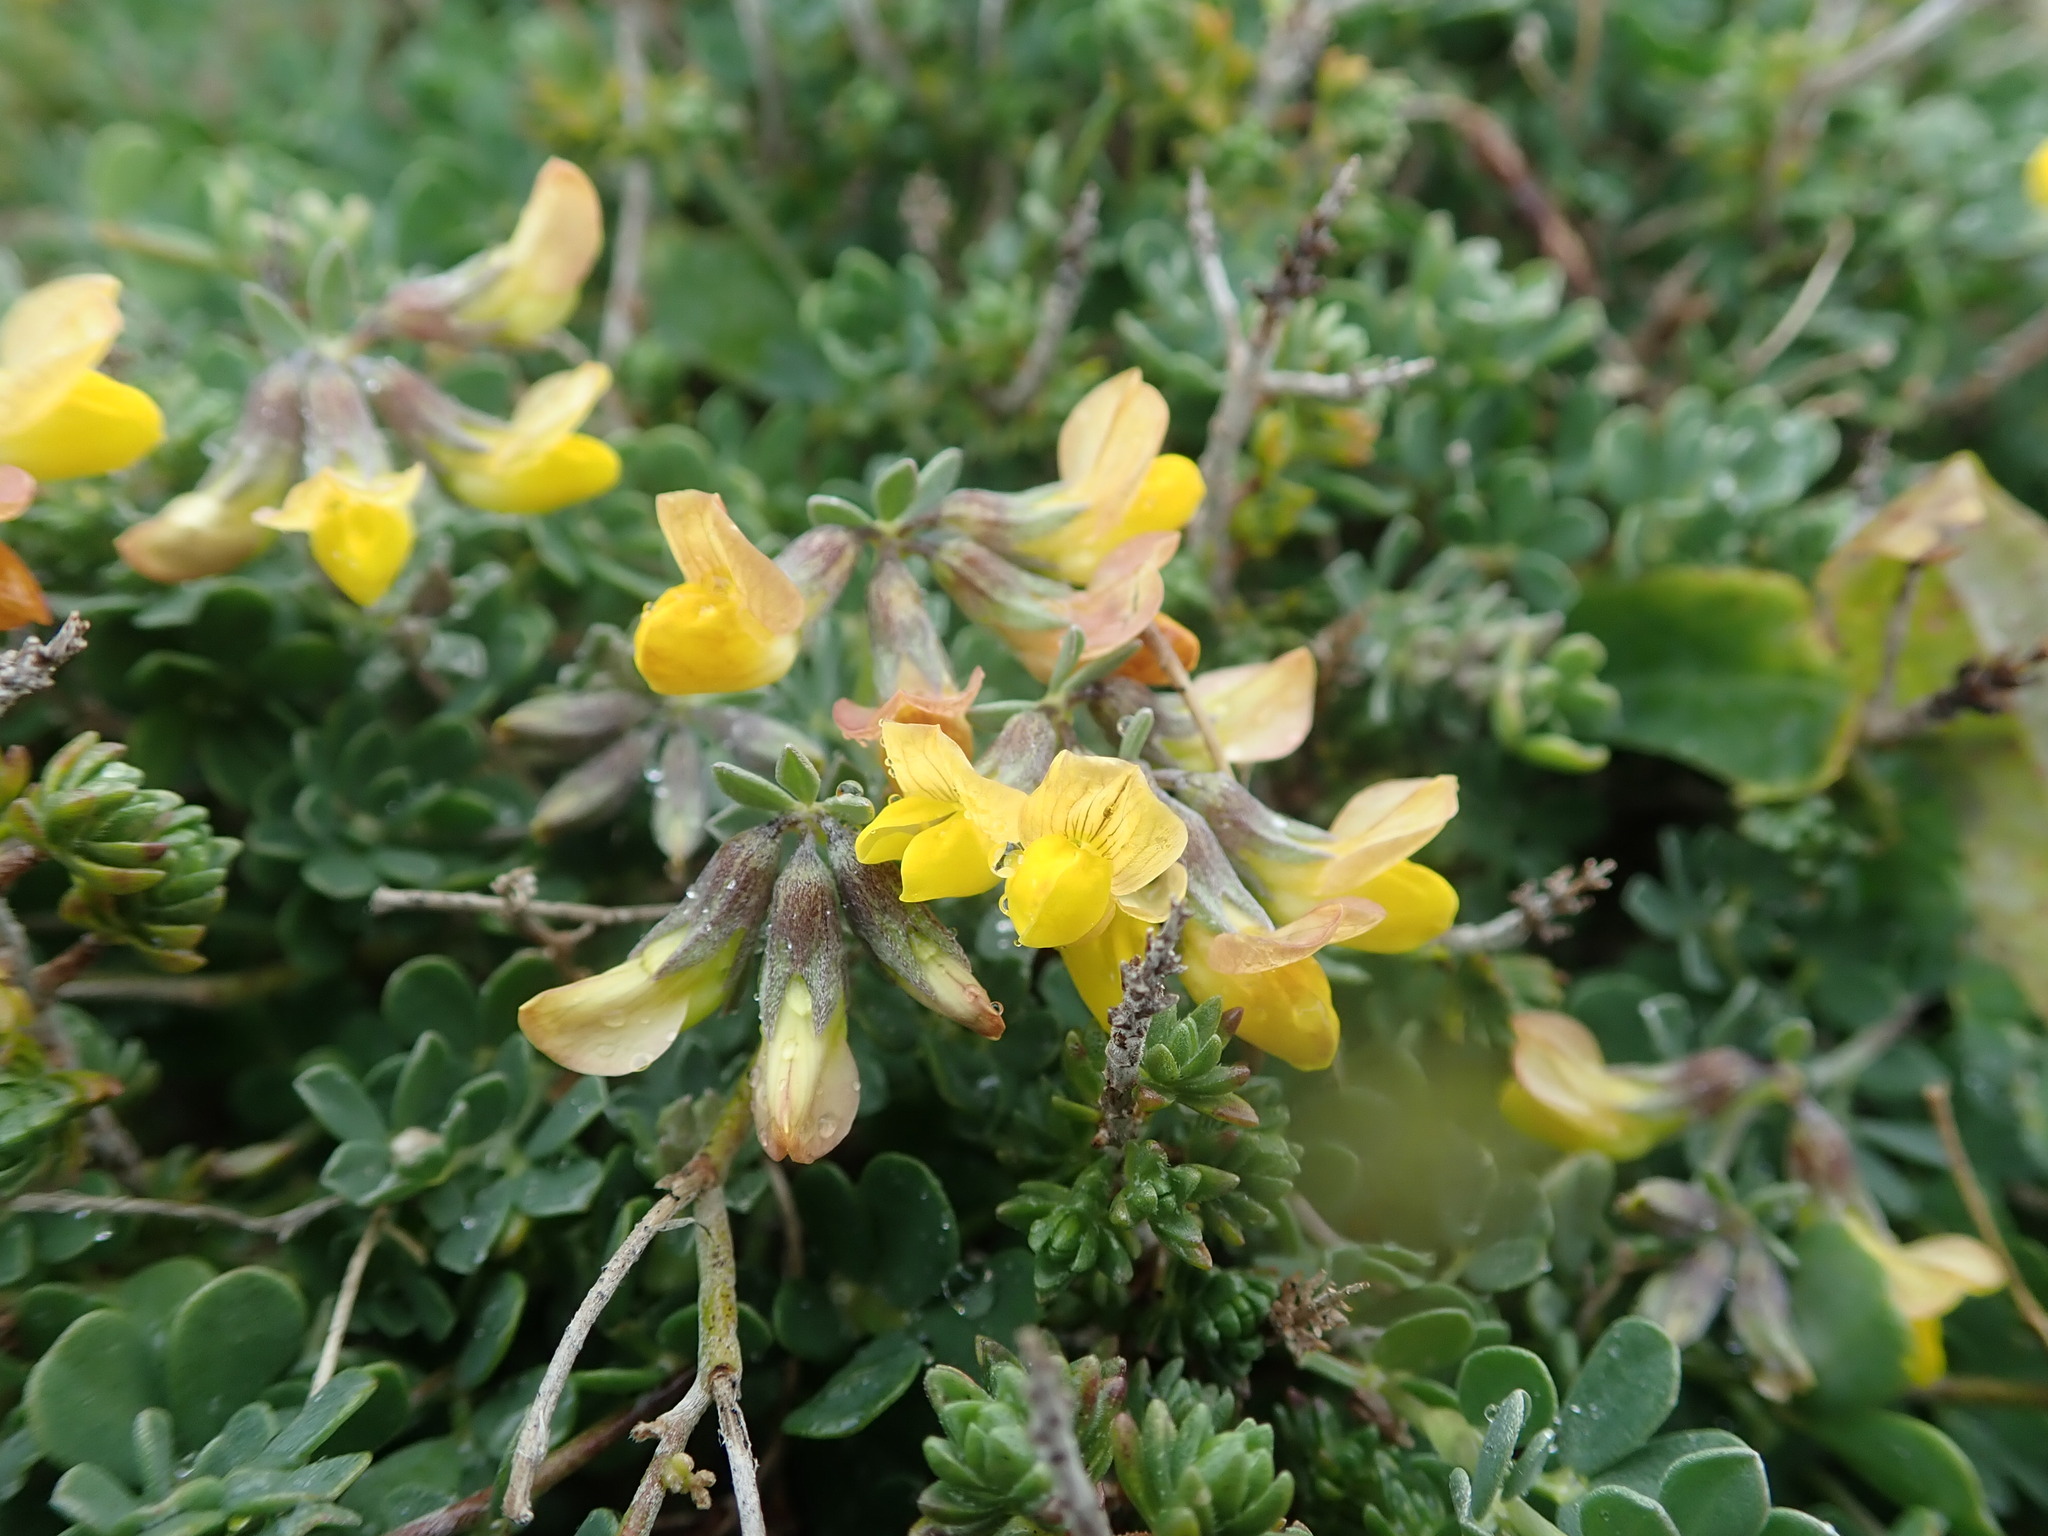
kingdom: Plantae
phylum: Tracheophyta
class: Magnoliopsida
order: Fabales
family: Fabaceae
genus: Lotus
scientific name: Lotus cytisoides
